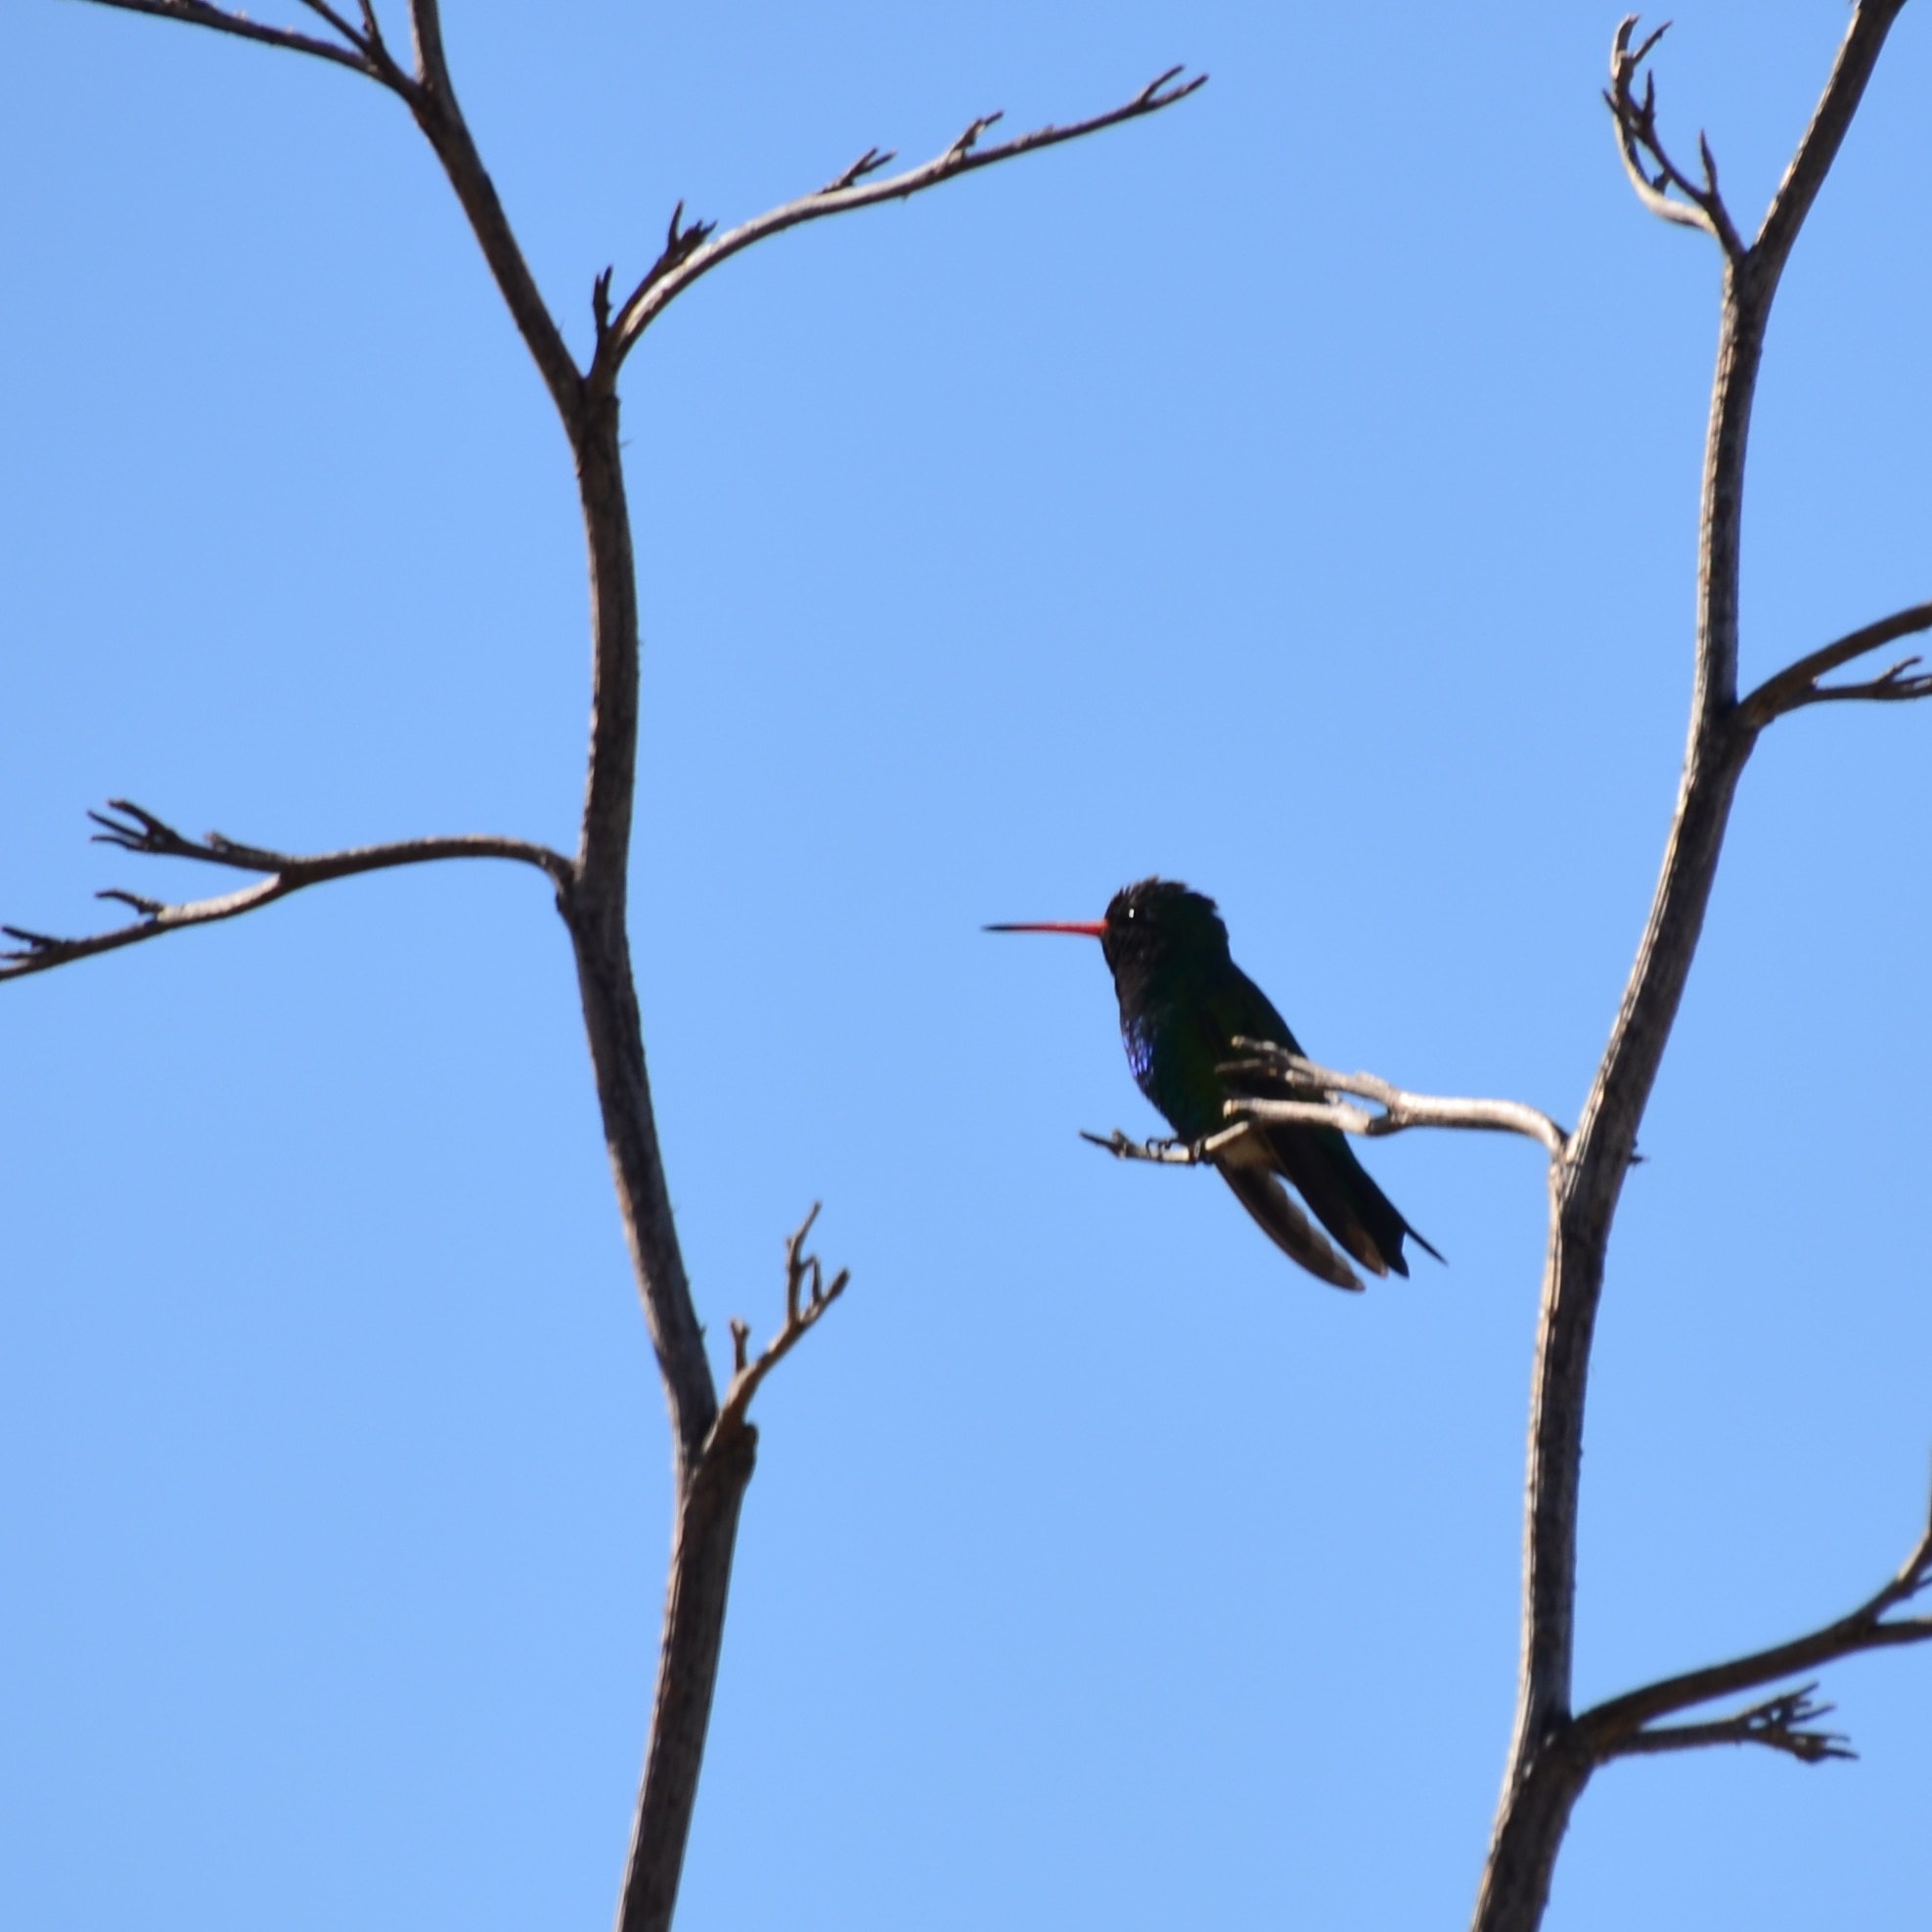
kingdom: Animalia
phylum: Chordata
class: Aves
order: Apodiformes
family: Trochilidae
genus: Chlorostilbon
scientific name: Chlorostilbon lucidus
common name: Glittering-bellied emerald
